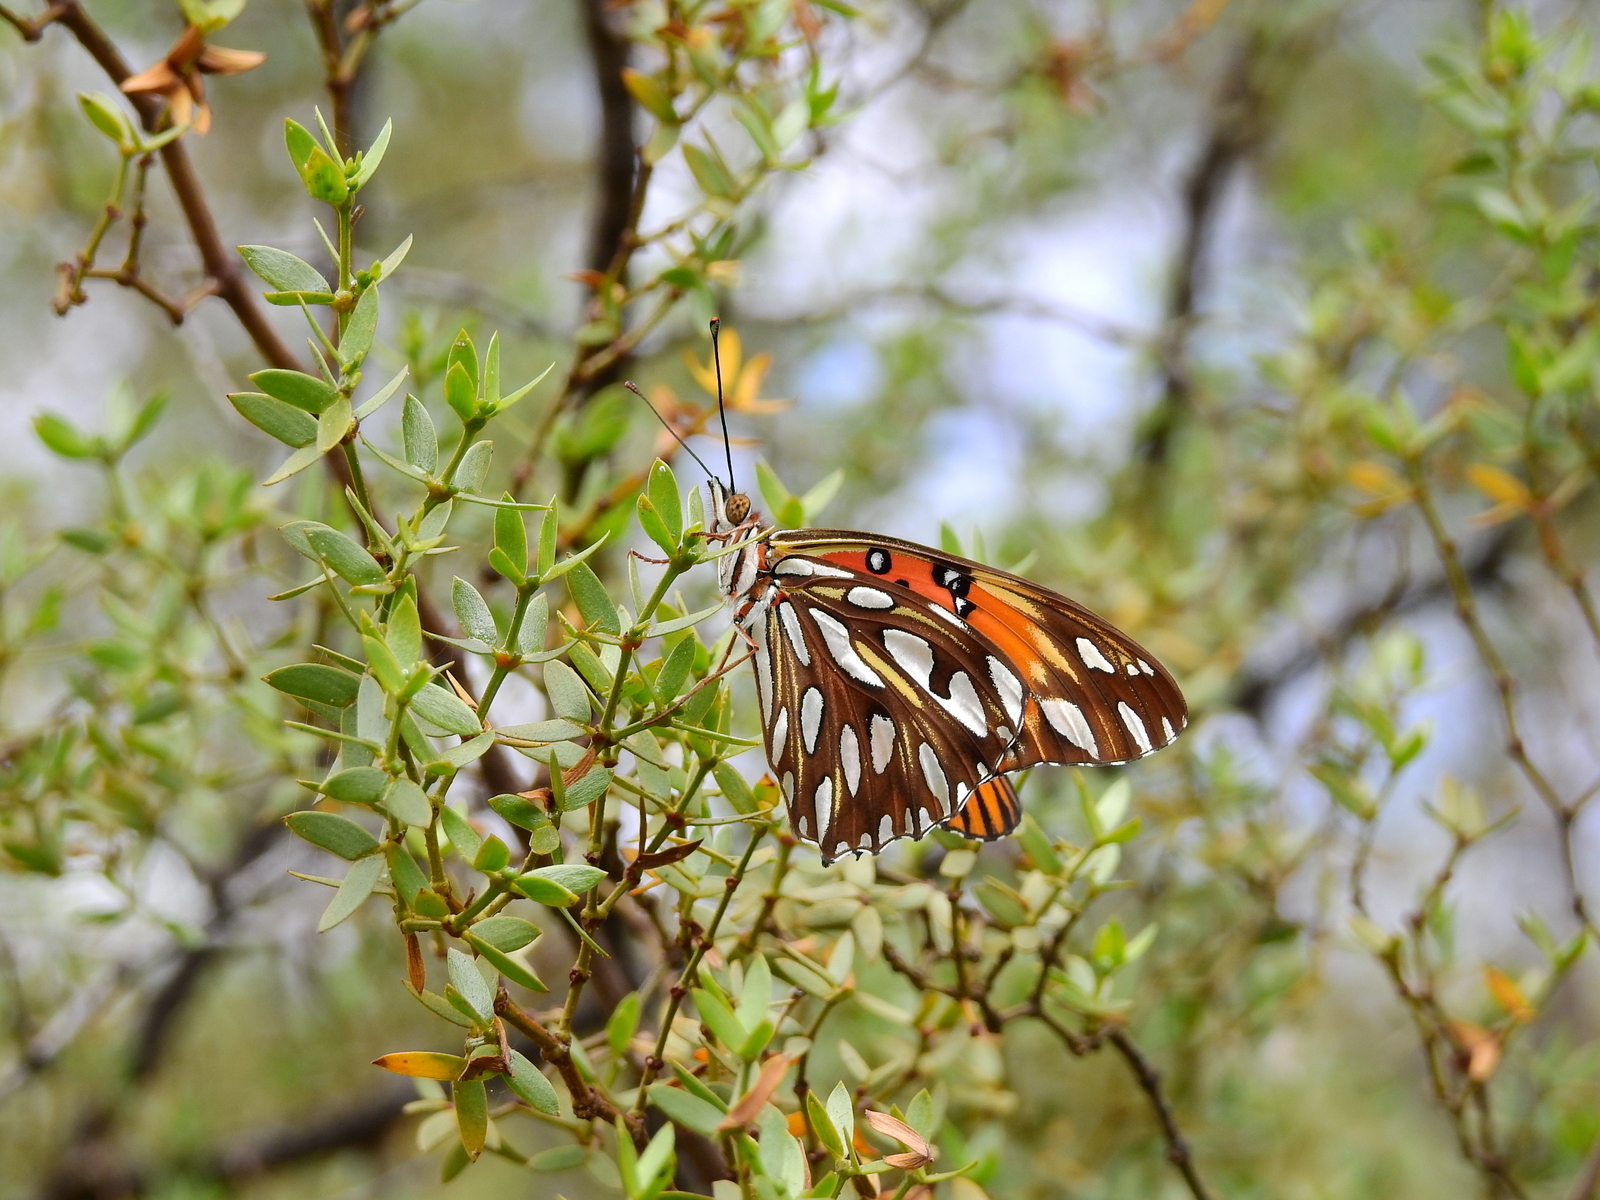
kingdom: Animalia
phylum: Arthropoda
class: Insecta
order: Lepidoptera
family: Nymphalidae
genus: Dione
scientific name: Dione vanillae
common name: Gulf fritillary
